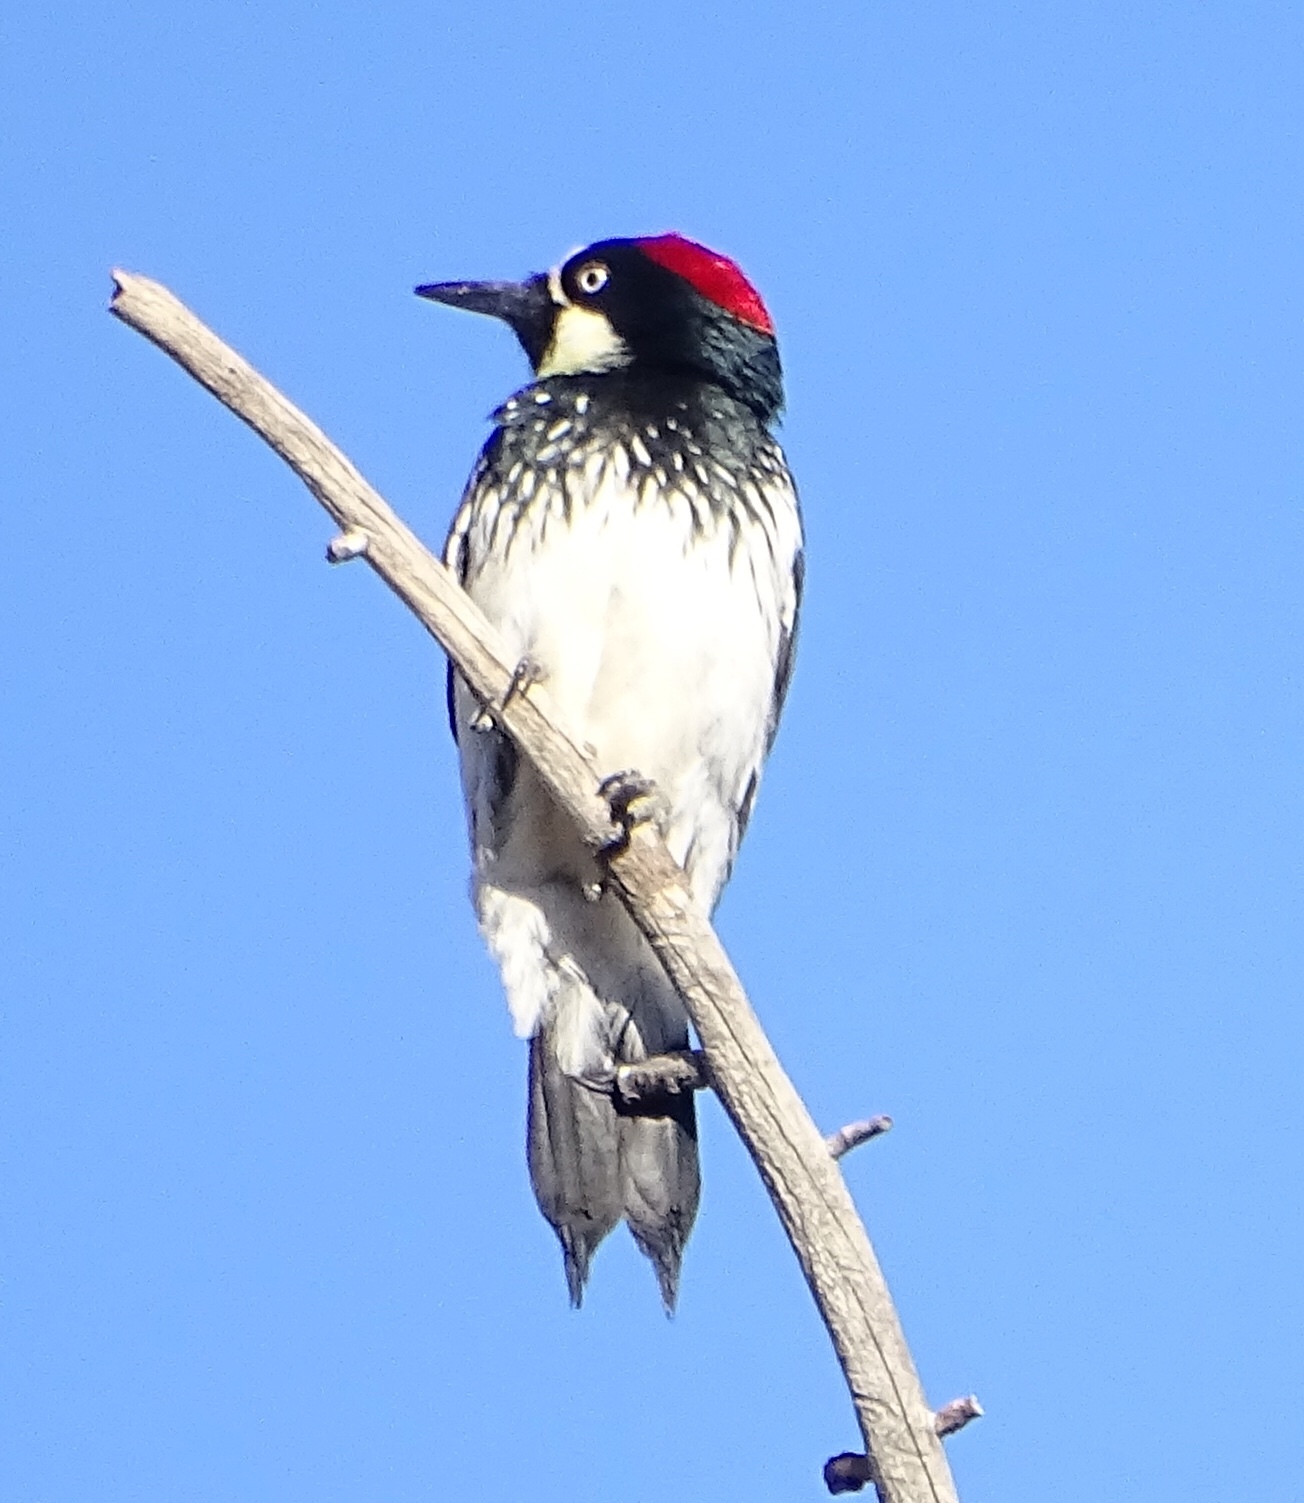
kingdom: Animalia
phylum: Chordata
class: Aves
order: Piciformes
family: Picidae
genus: Melanerpes
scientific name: Melanerpes formicivorus
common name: Acorn woodpecker
